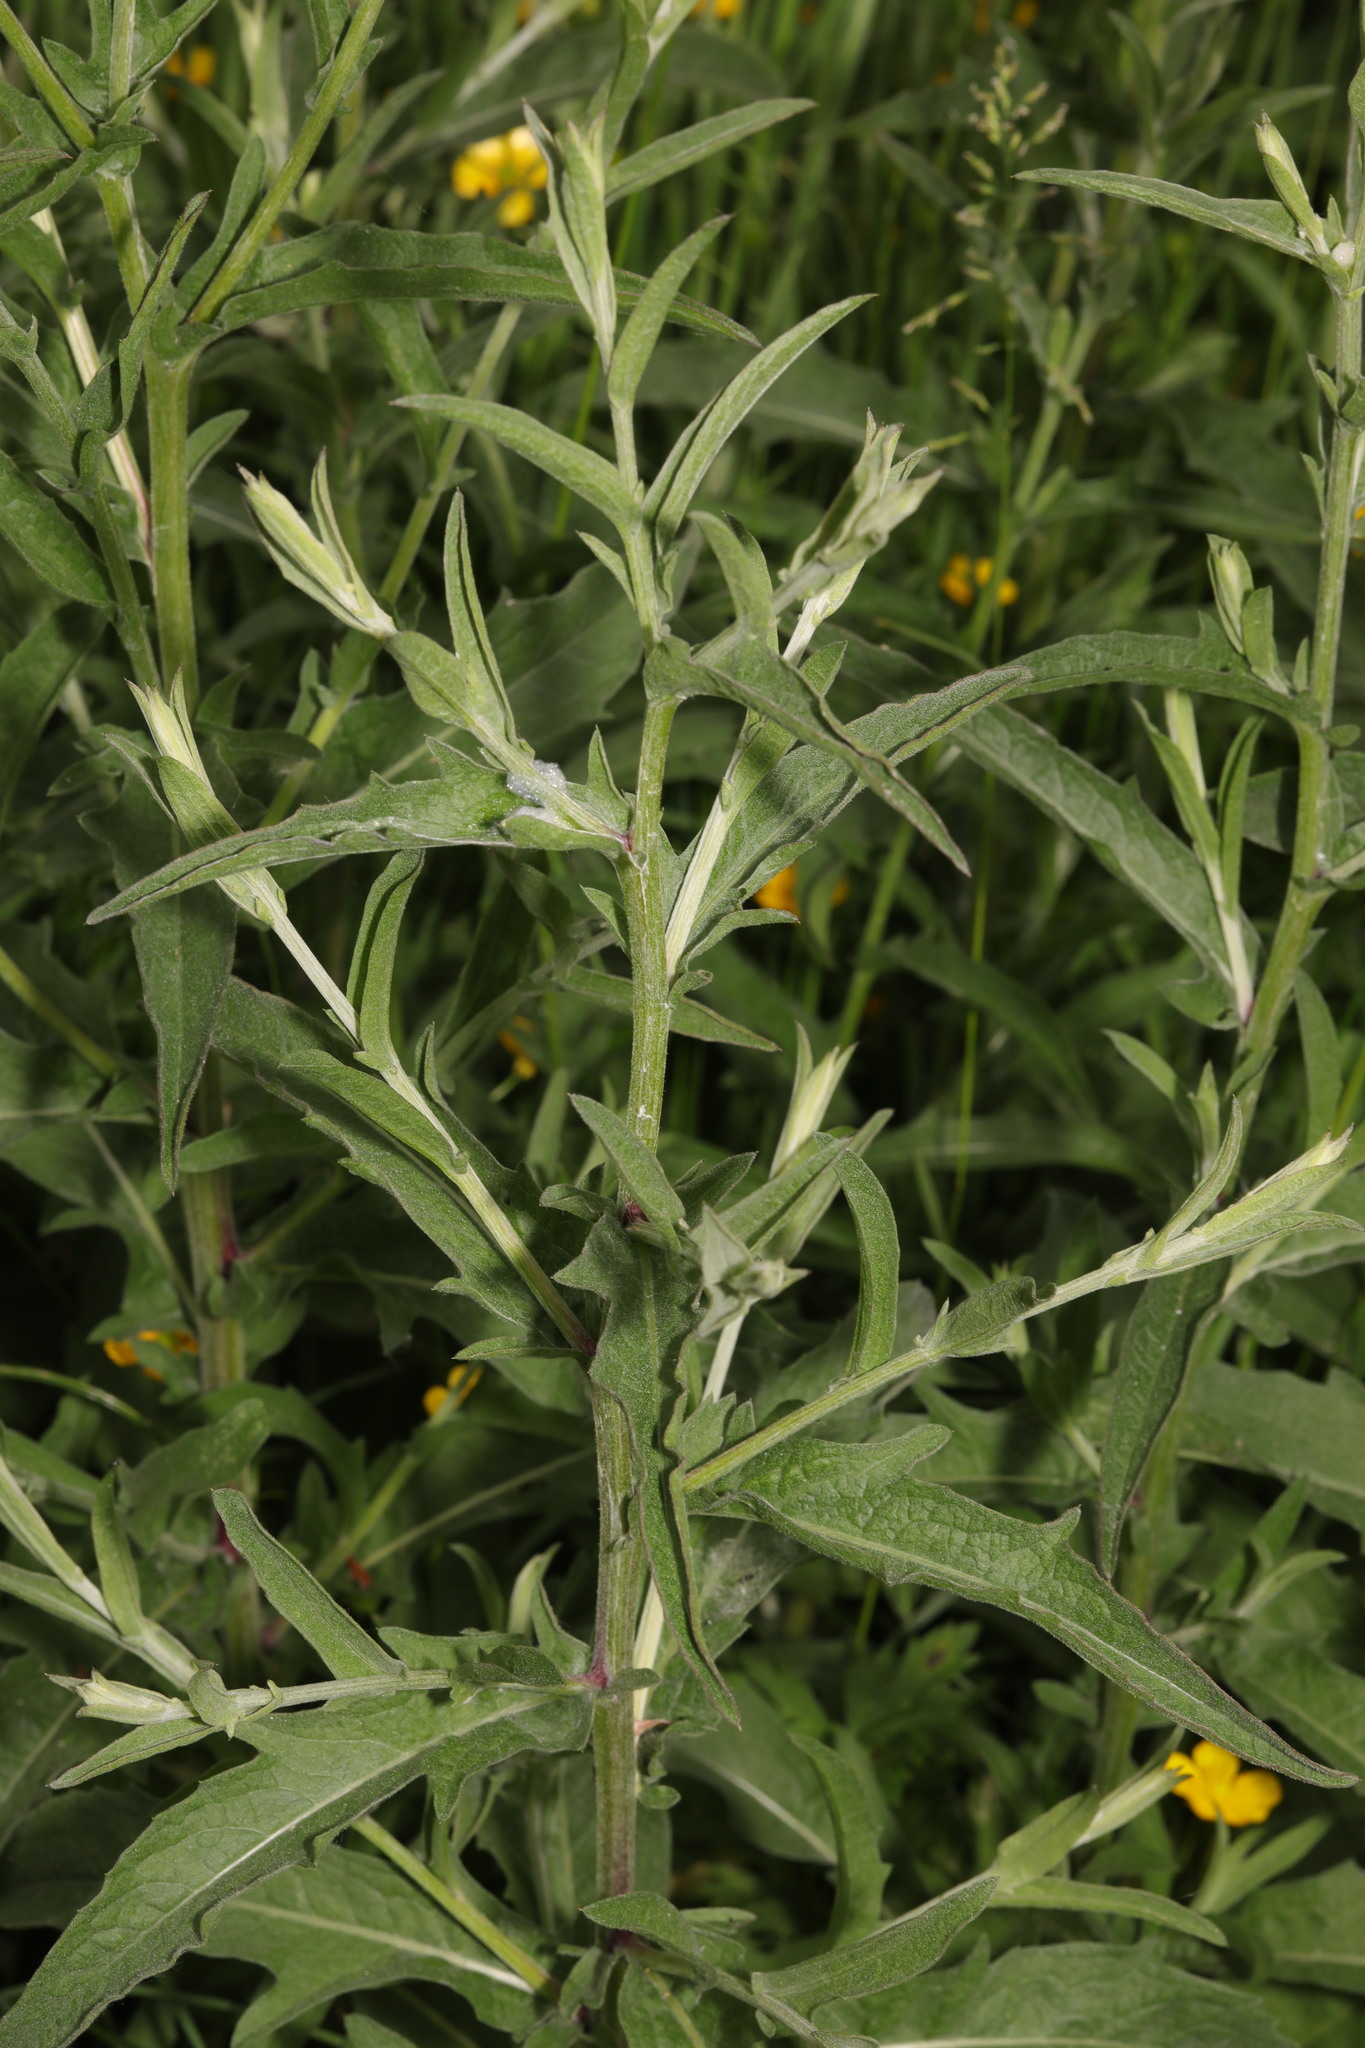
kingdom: Plantae
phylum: Tracheophyta
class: Magnoliopsida
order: Asterales
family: Asteraceae
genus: Centaurea
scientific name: Centaurea nigra
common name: Lesser knapweed
